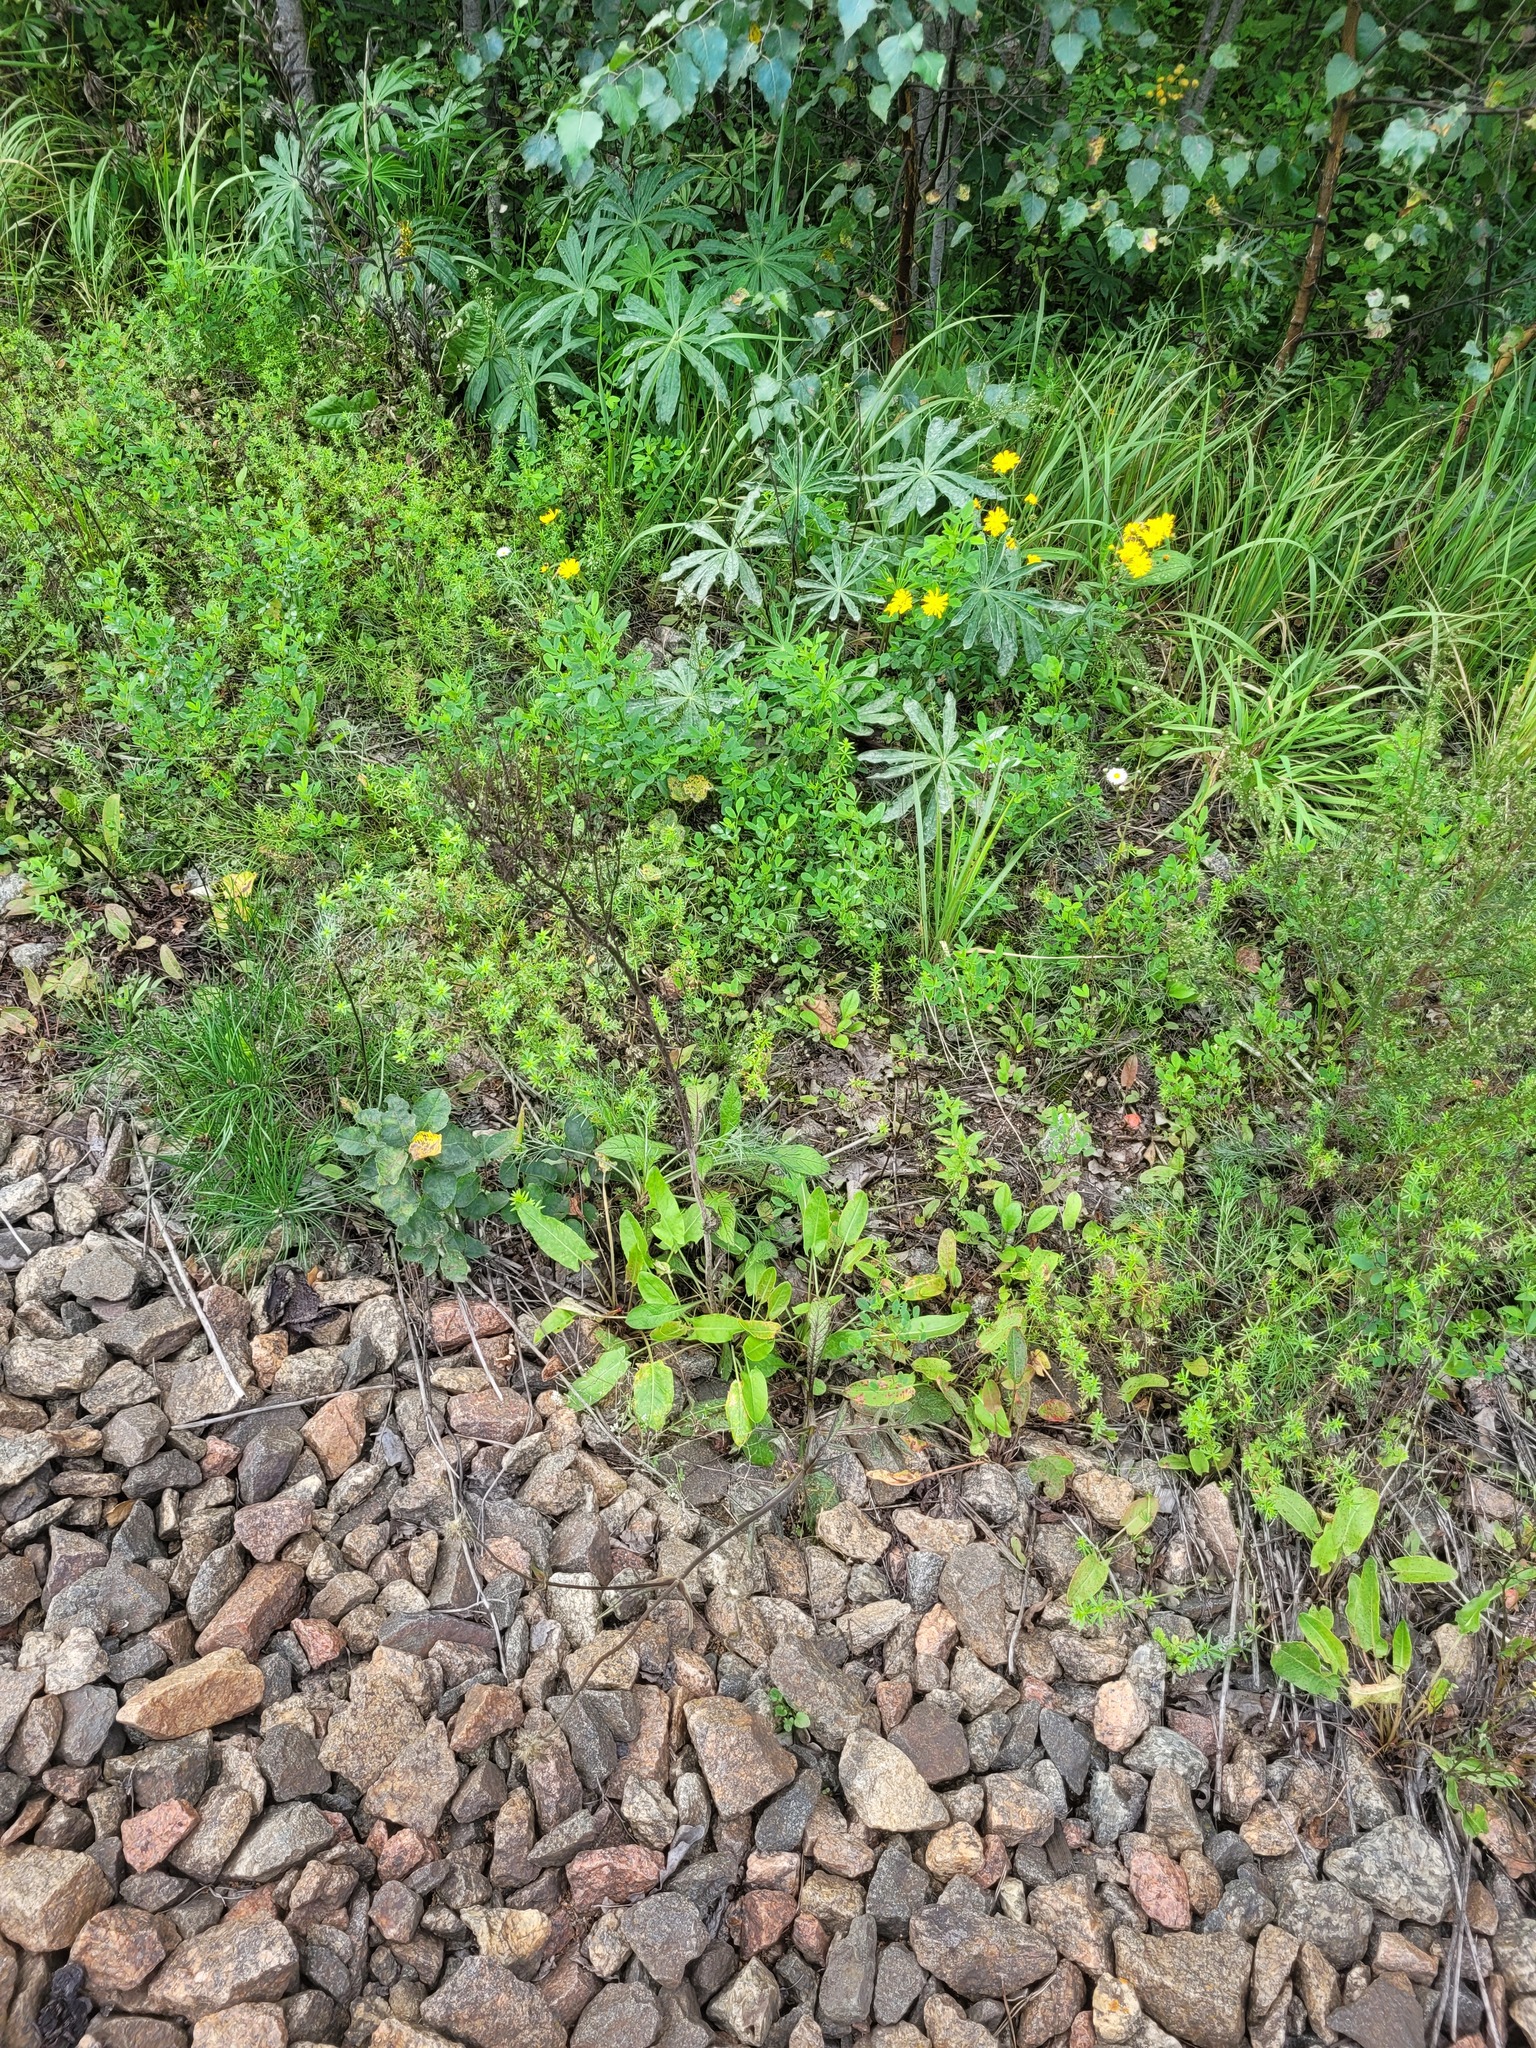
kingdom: Plantae
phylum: Tracheophyta
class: Magnoliopsida
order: Caryophyllales
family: Polygonaceae
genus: Rumex
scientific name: Rumex thyrsiflorus
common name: Garden sorrel
